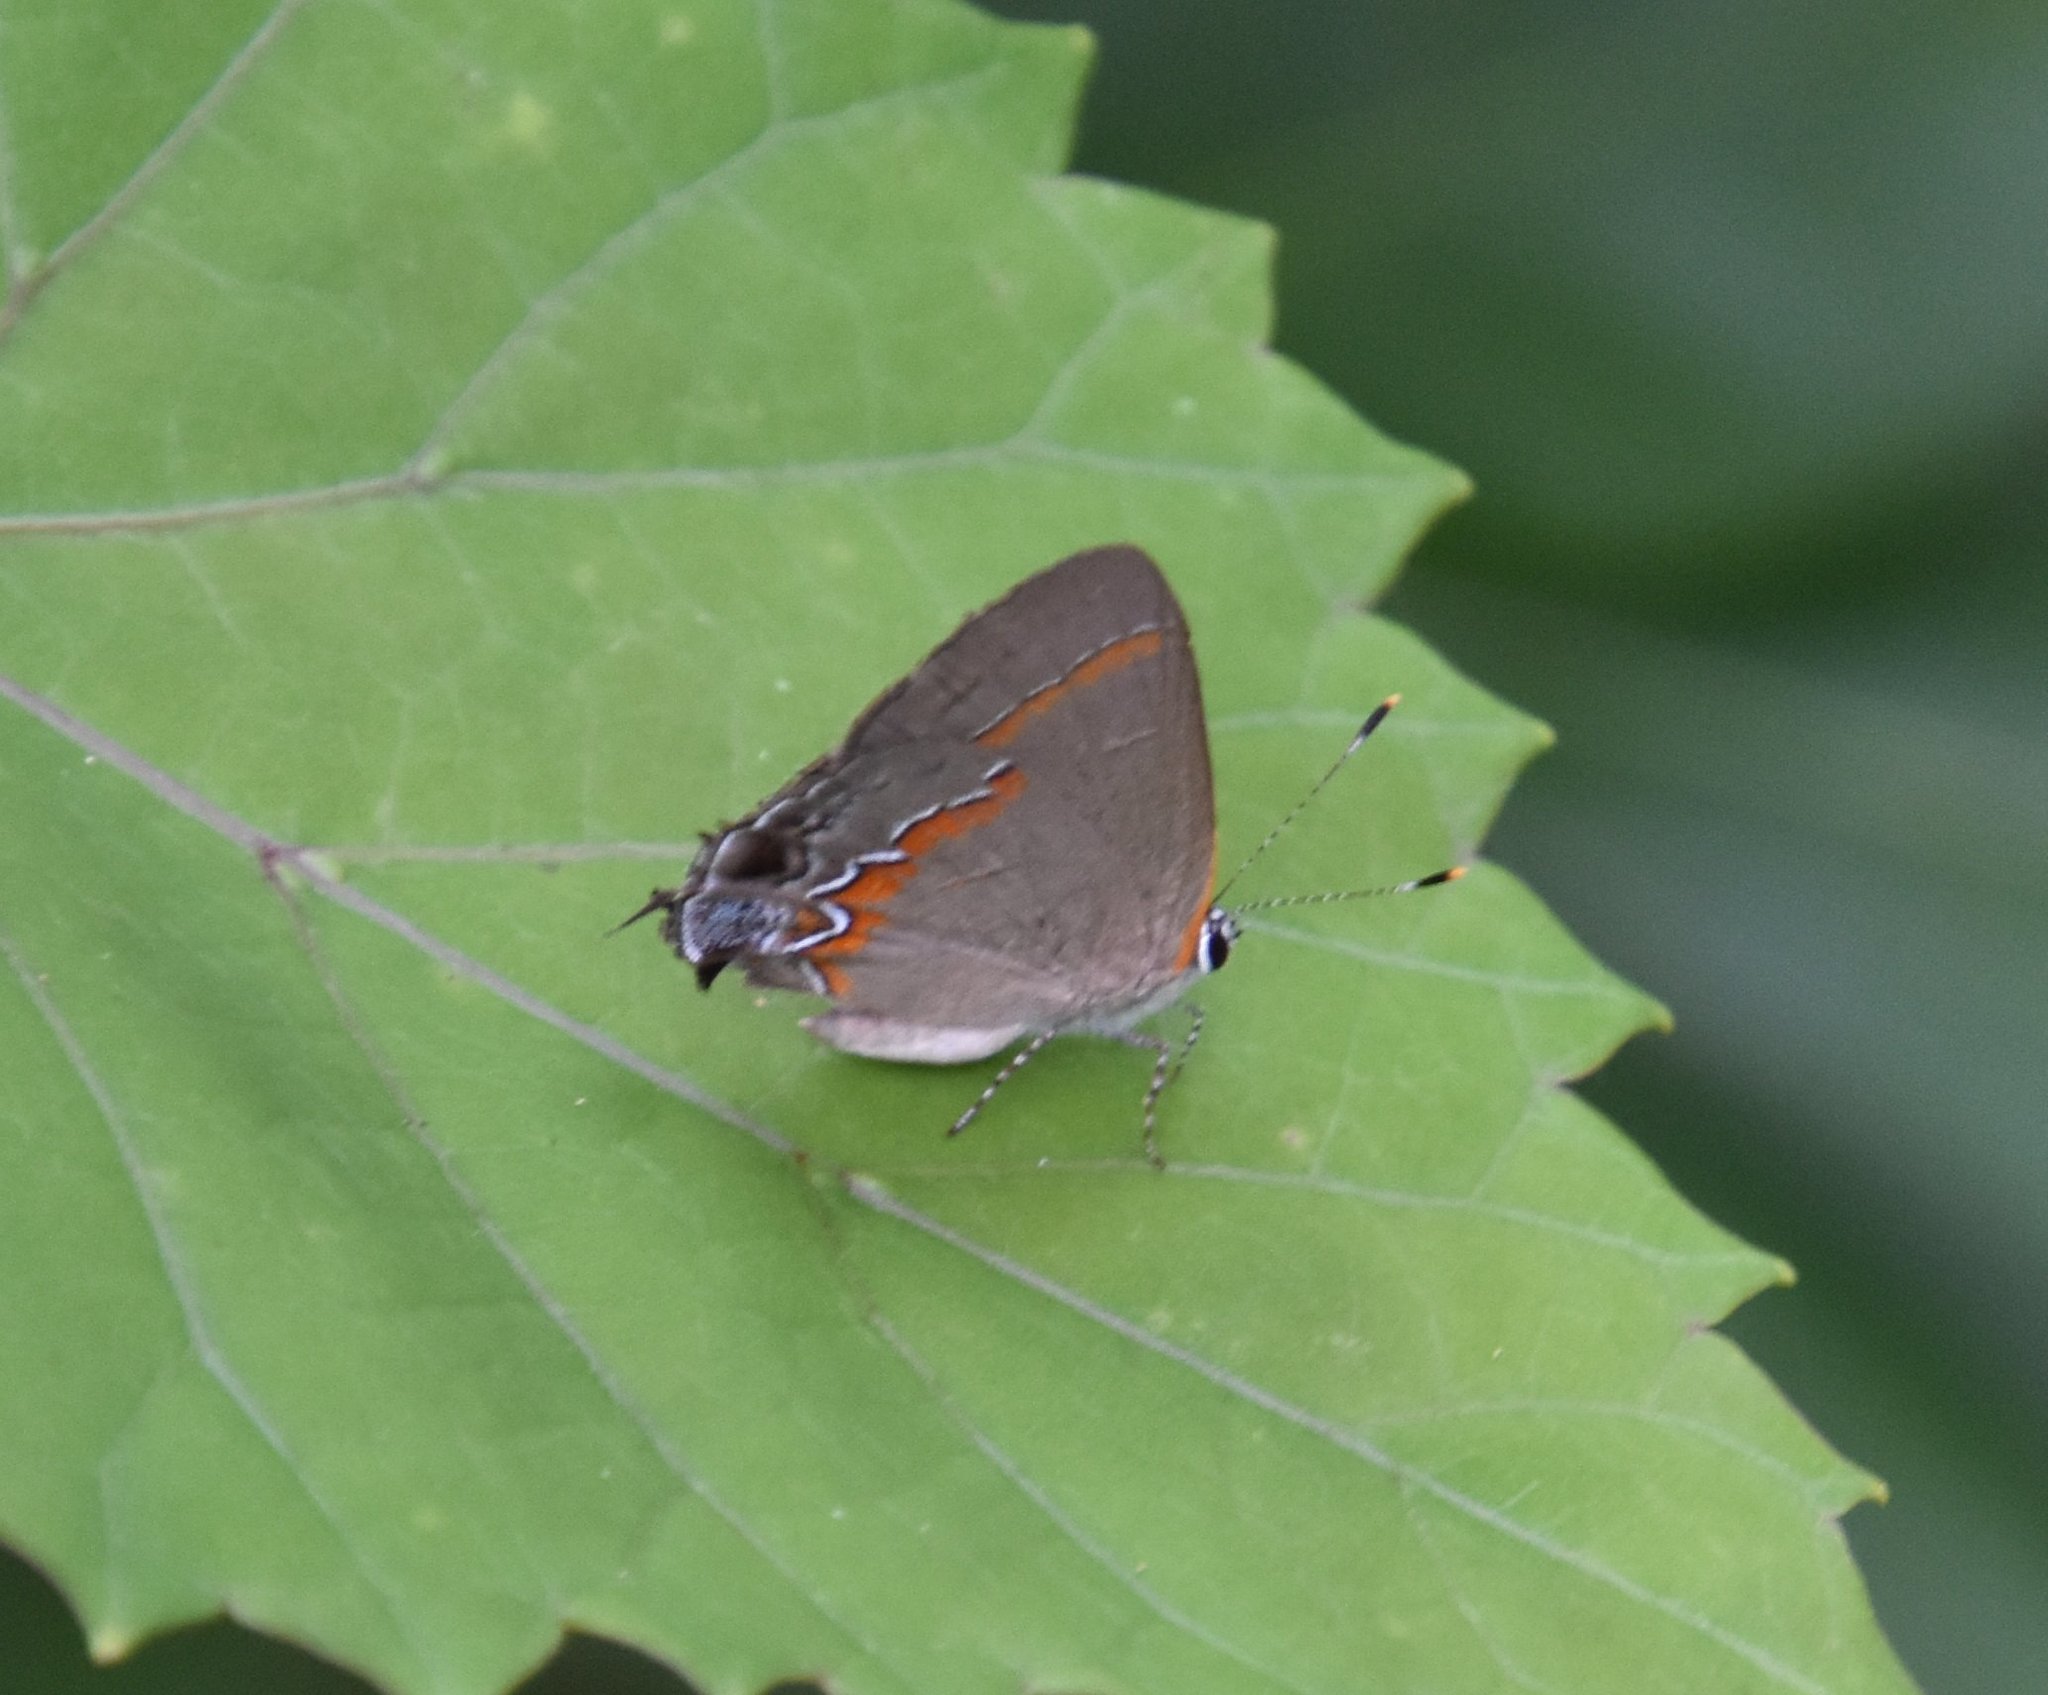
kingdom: Animalia
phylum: Arthropoda
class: Insecta
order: Lepidoptera
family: Lycaenidae
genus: Calycopis
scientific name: Calycopis cecrops
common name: Red-banded hairstreak
